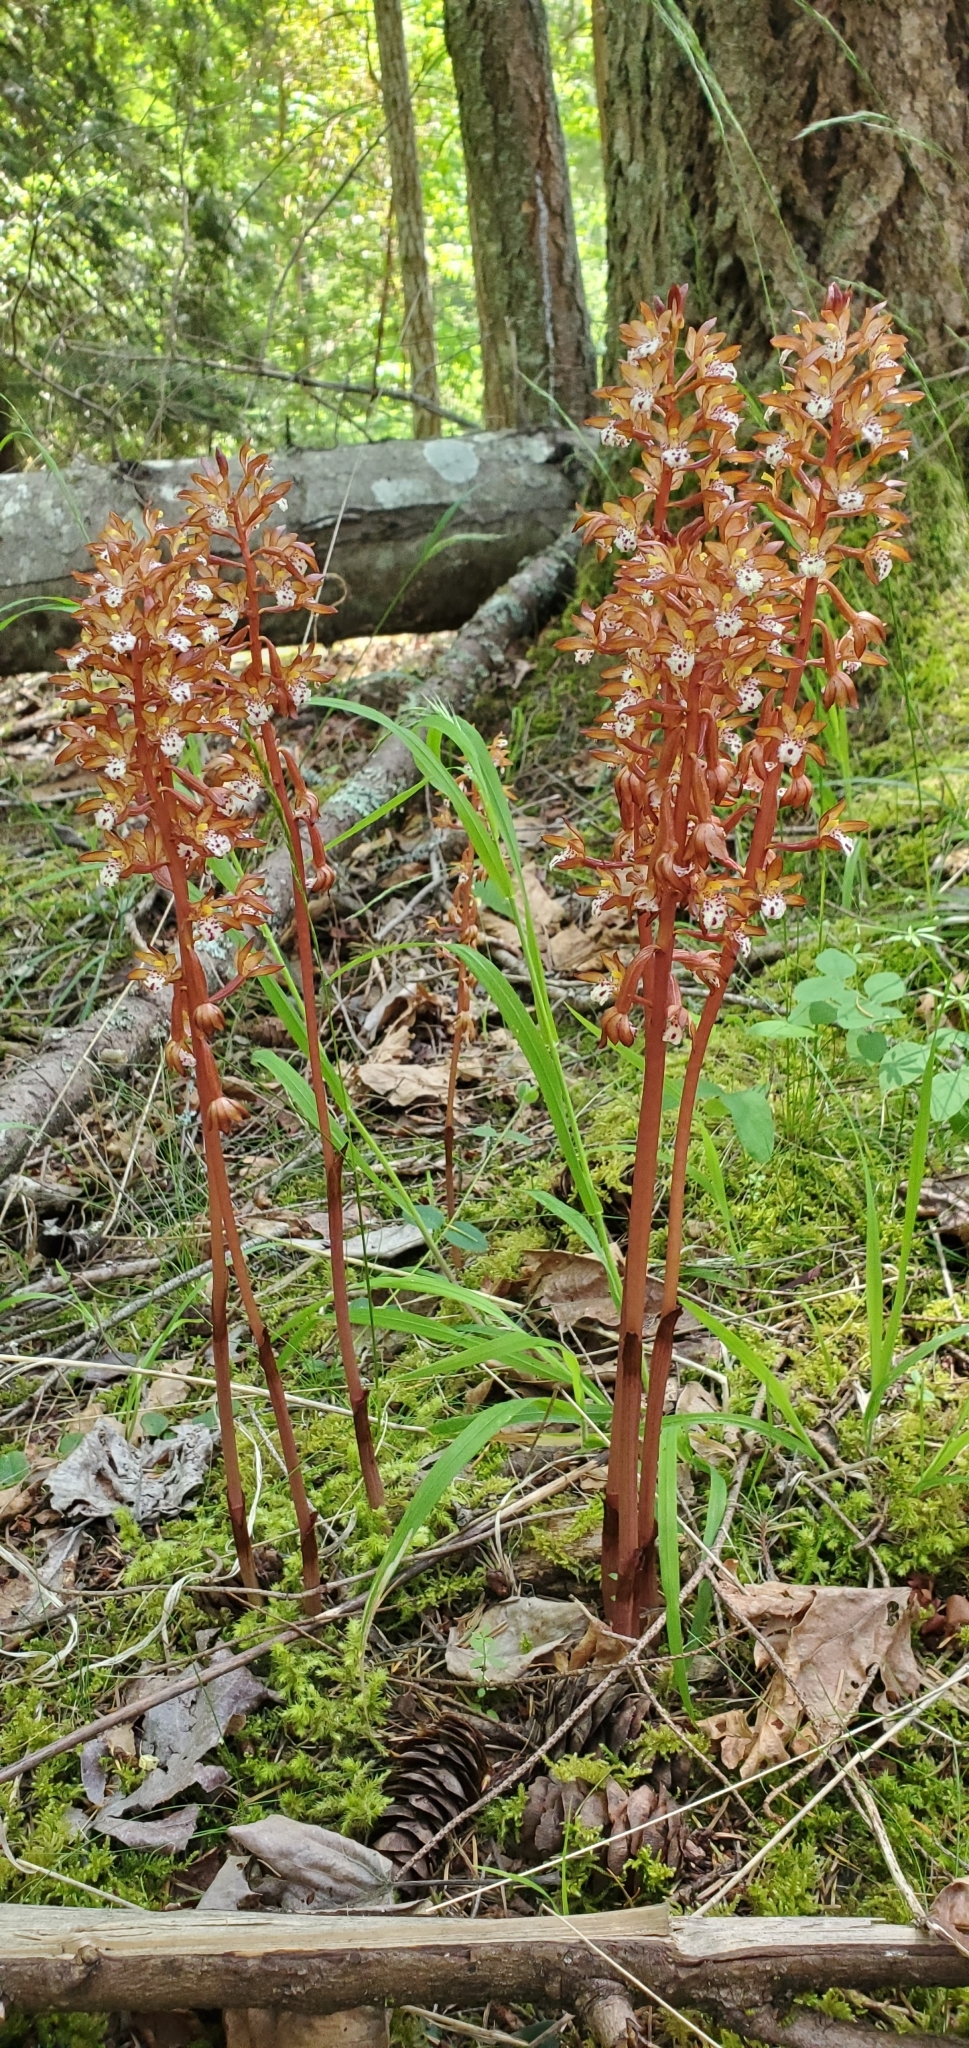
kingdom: Plantae
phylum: Tracheophyta
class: Liliopsida
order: Asparagales
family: Orchidaceae
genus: Corallorhiza
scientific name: Corallorhiza maculata
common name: Spotted coralroot
